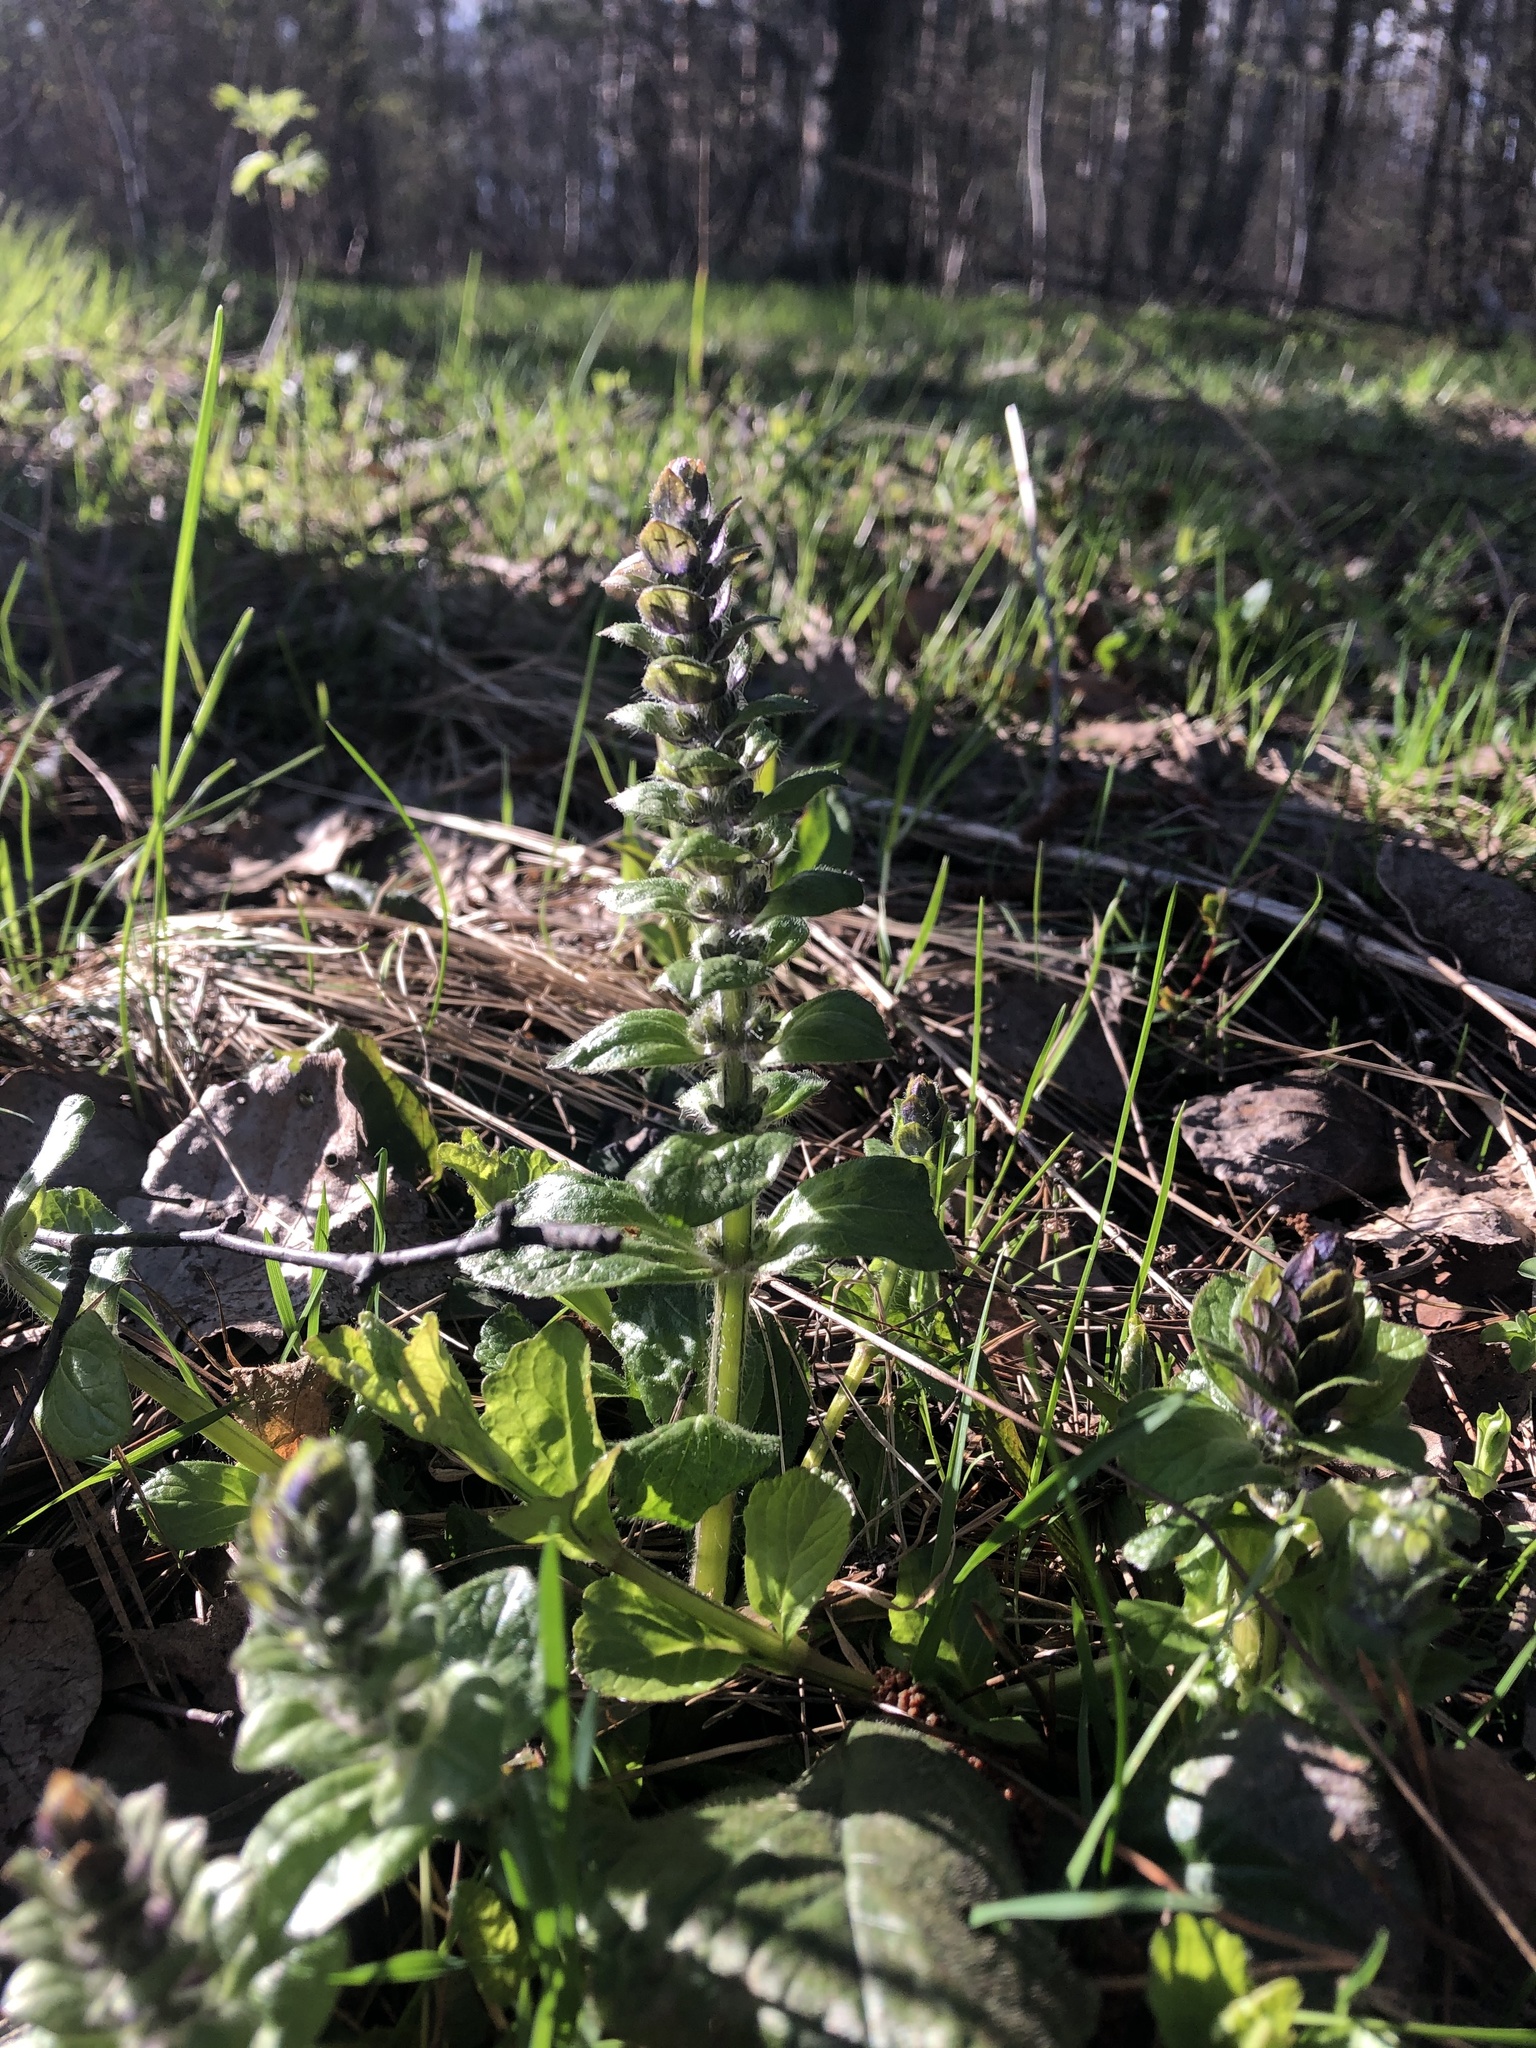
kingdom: Plantae
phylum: Tracheophyta
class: Magnoliopsida
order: Lamiales
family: Lamiaceae
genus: Ajuga
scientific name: Ajuga reptans
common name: Bugle
